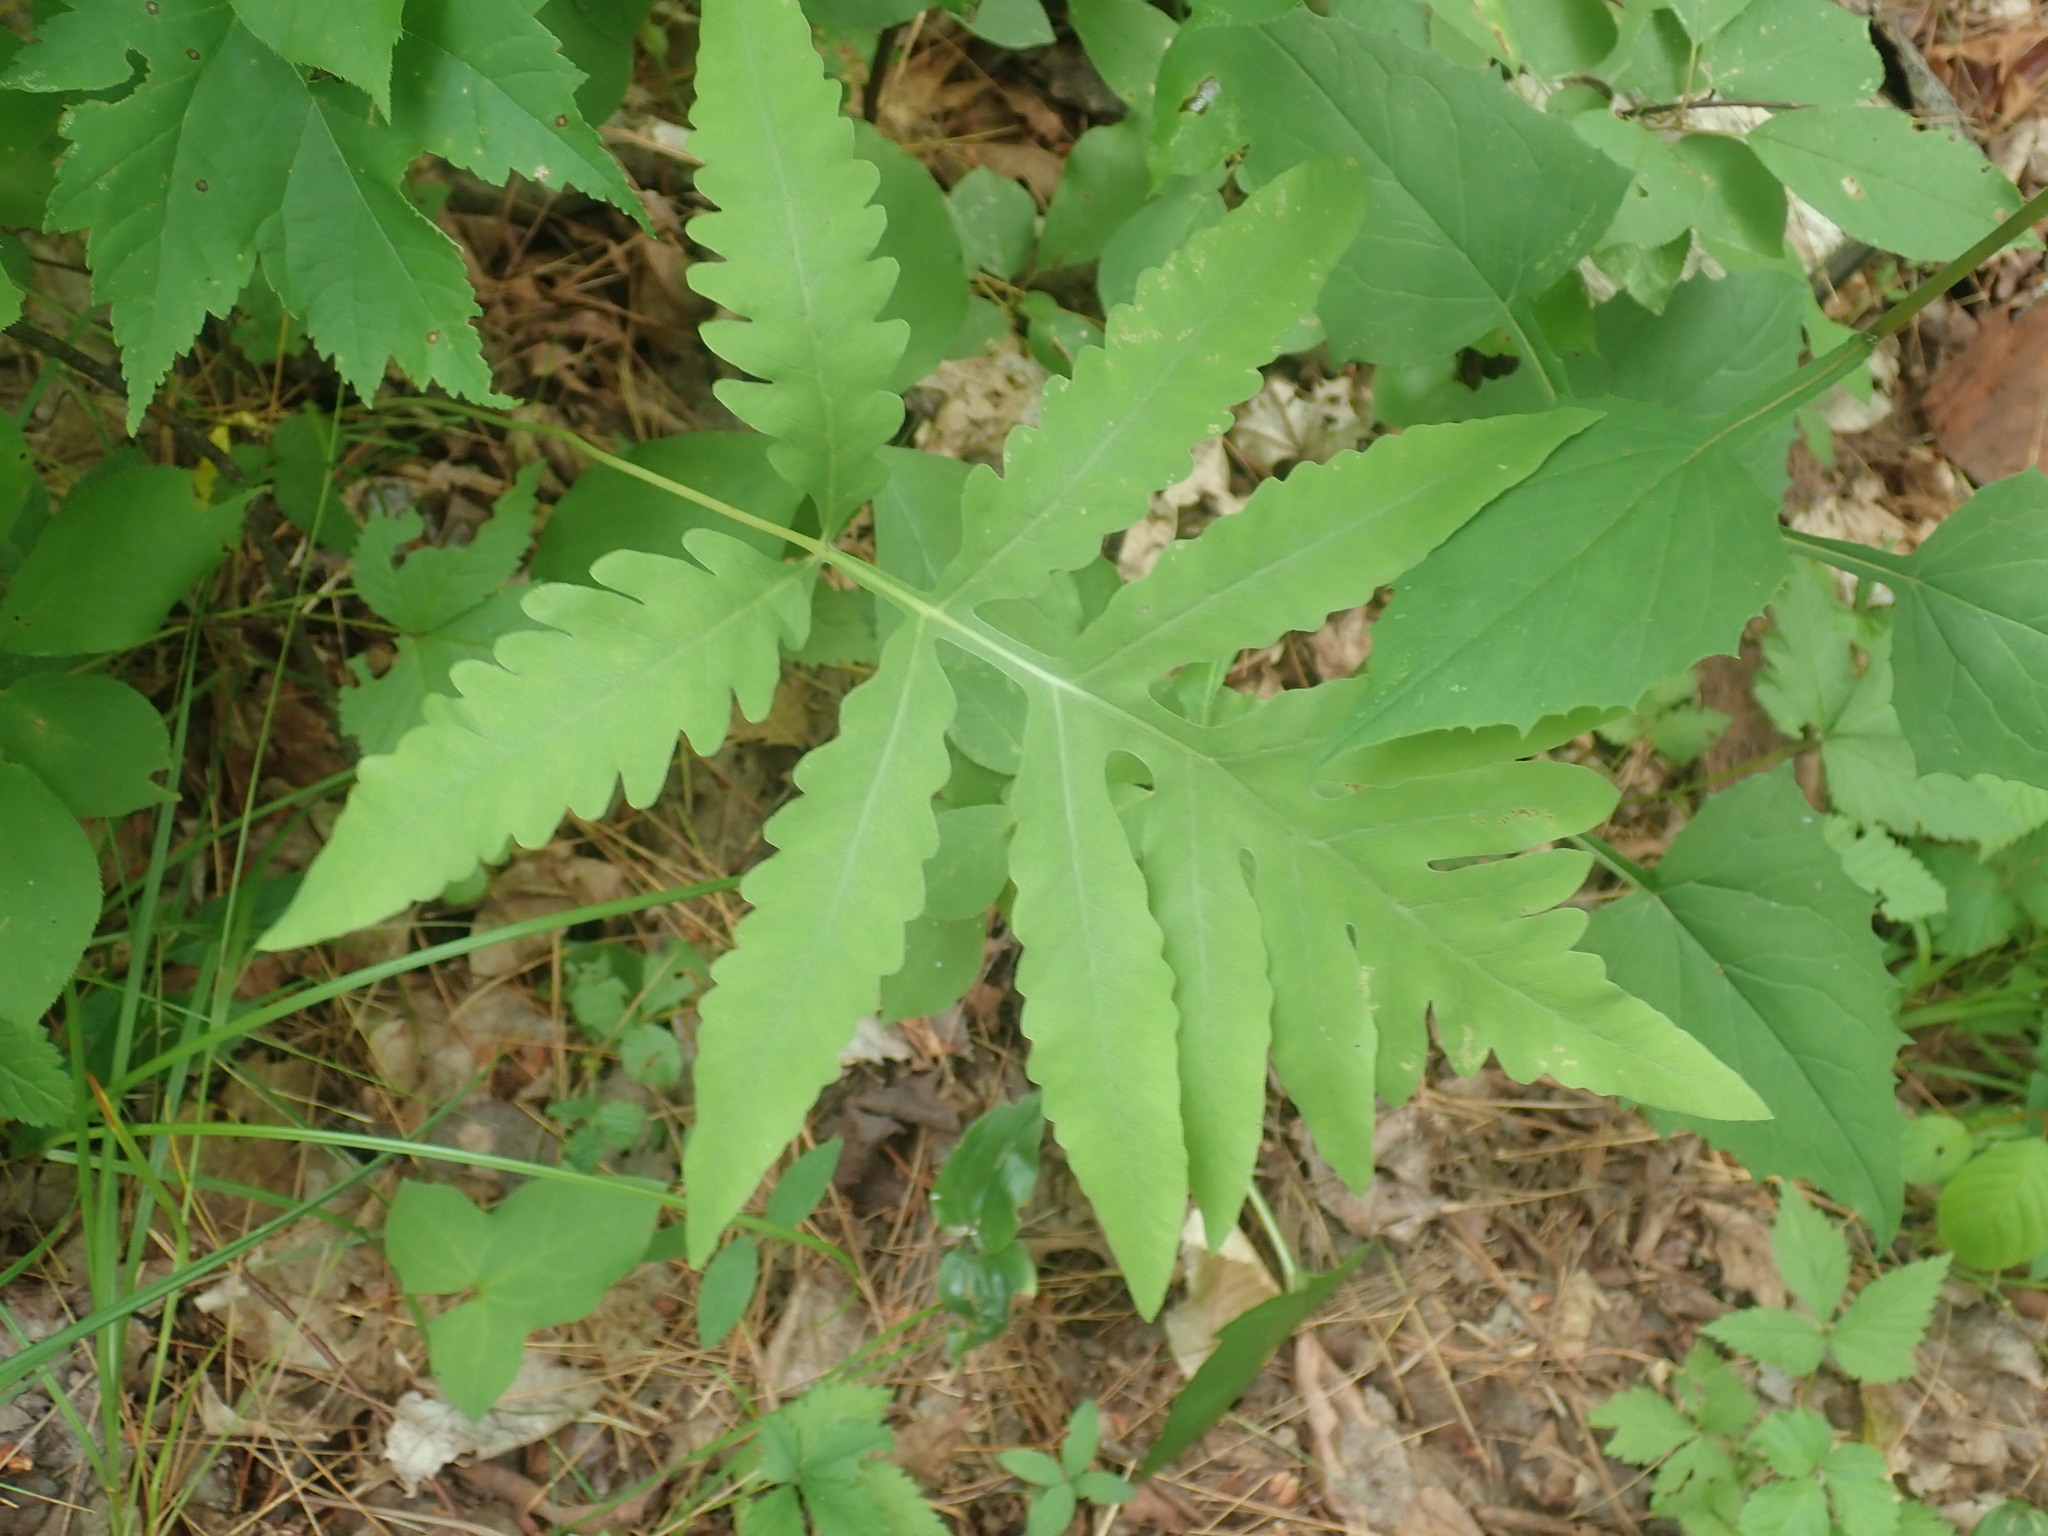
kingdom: Plantae
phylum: Tracheophyta
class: Polypodiopsida
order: Polypodiales
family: Onocleaceae
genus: Onoclea
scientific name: Onoclea sensibilis
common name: Sensitive fern
